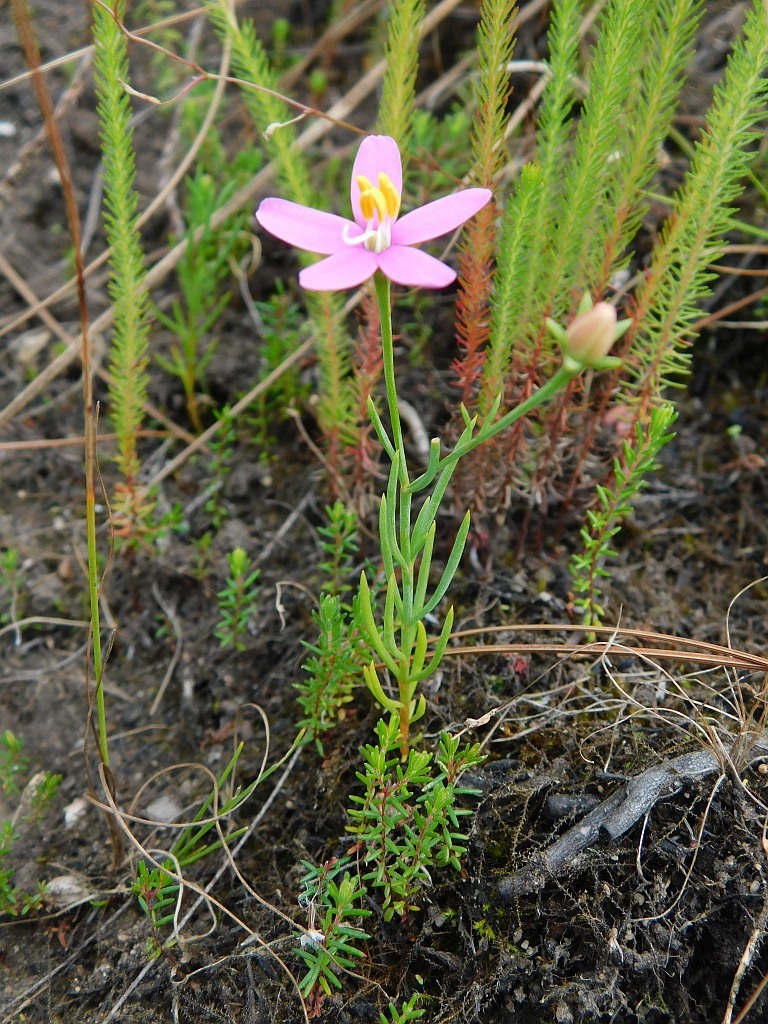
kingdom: Plantae
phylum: Tracheophyta
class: Magnoliopsida
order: Gentianales
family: Gentianaceae
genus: Chironia
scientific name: Chironia linoides
